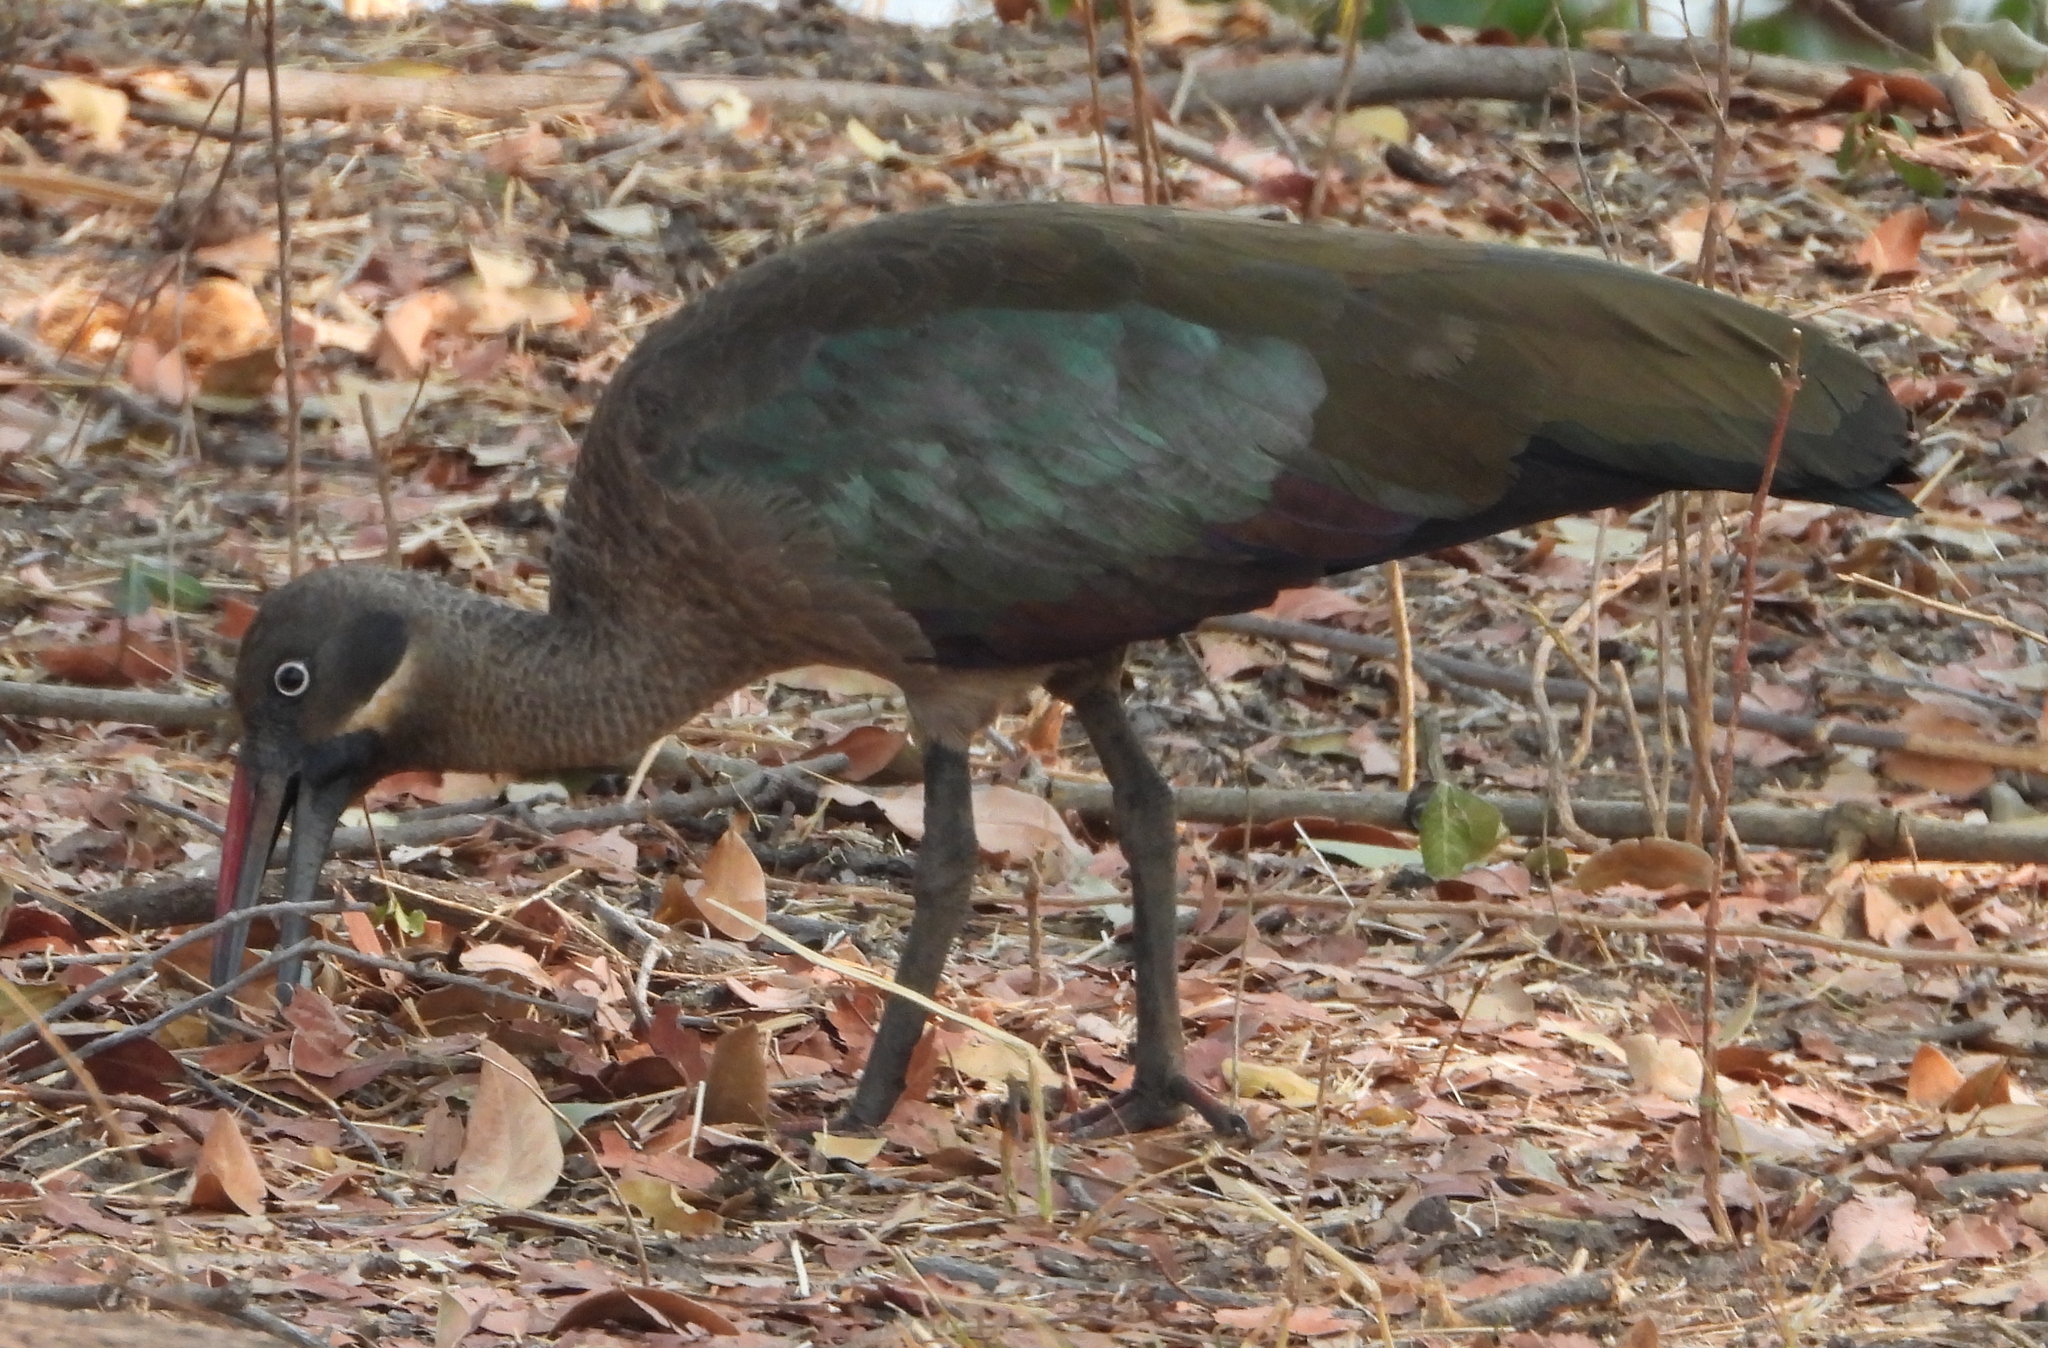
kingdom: Animalia
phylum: Chordata
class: Aves
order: Pelecaniformes
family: Threskiornithidae
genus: Bostrychia
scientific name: Bostrychia hagedash
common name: Hadada ibis
